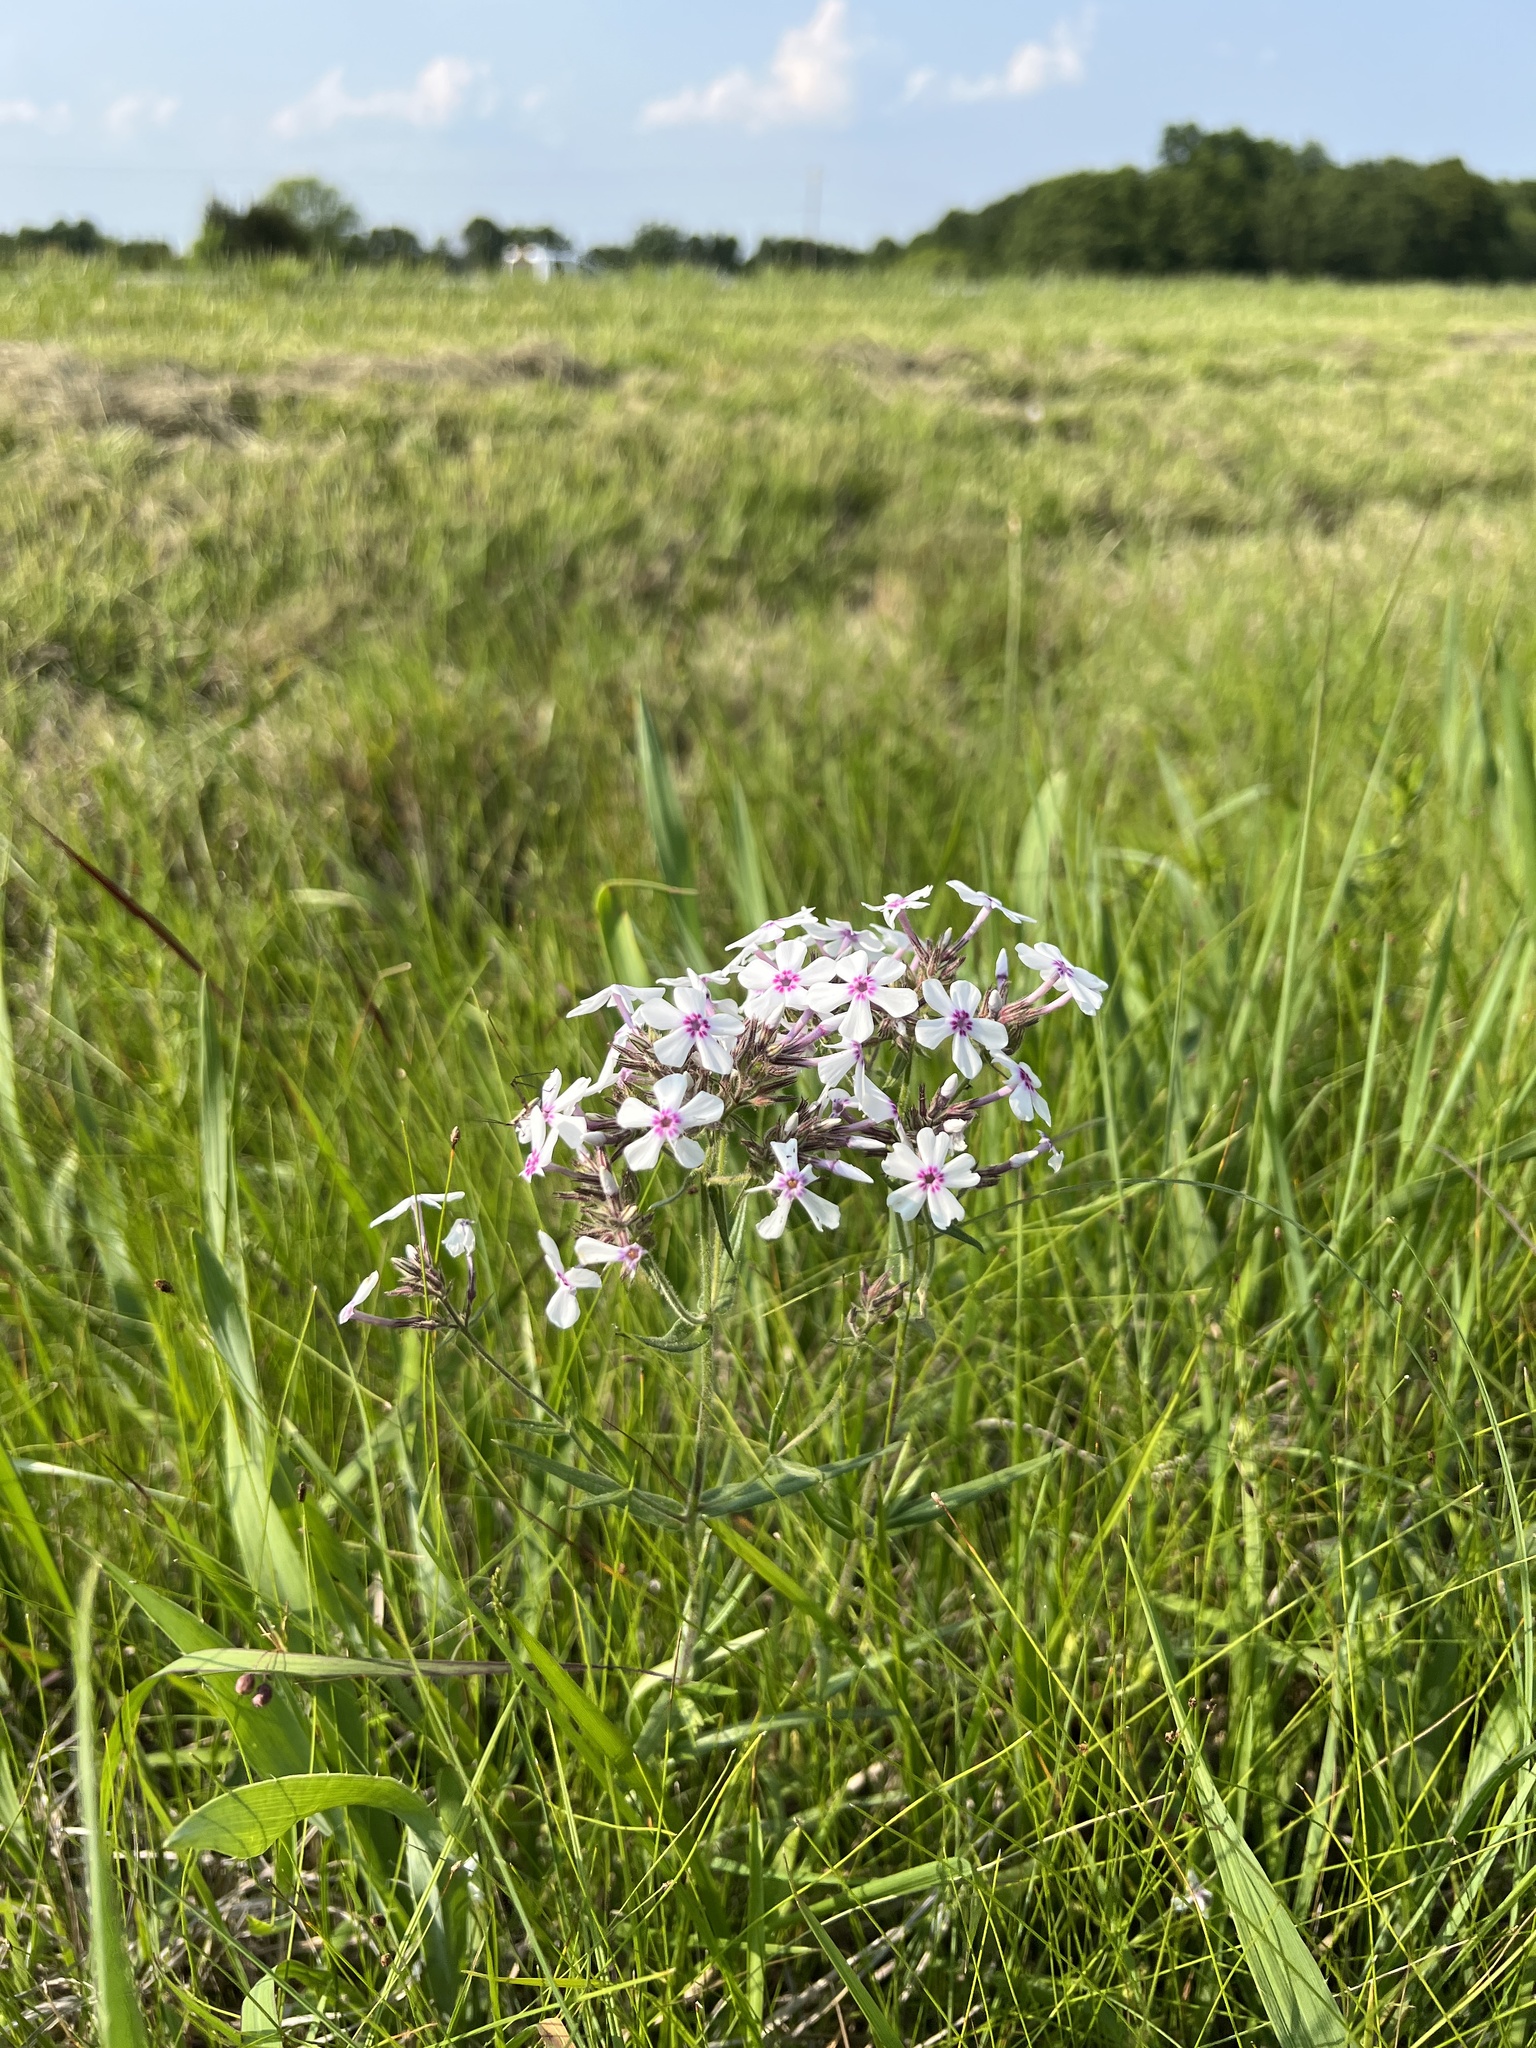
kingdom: Plantae
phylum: Tracheophyta
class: Magnoliopsida
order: Ericales
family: Polemoniaceae
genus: Phlox
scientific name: Phlox pilosa
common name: Prairie phlox
